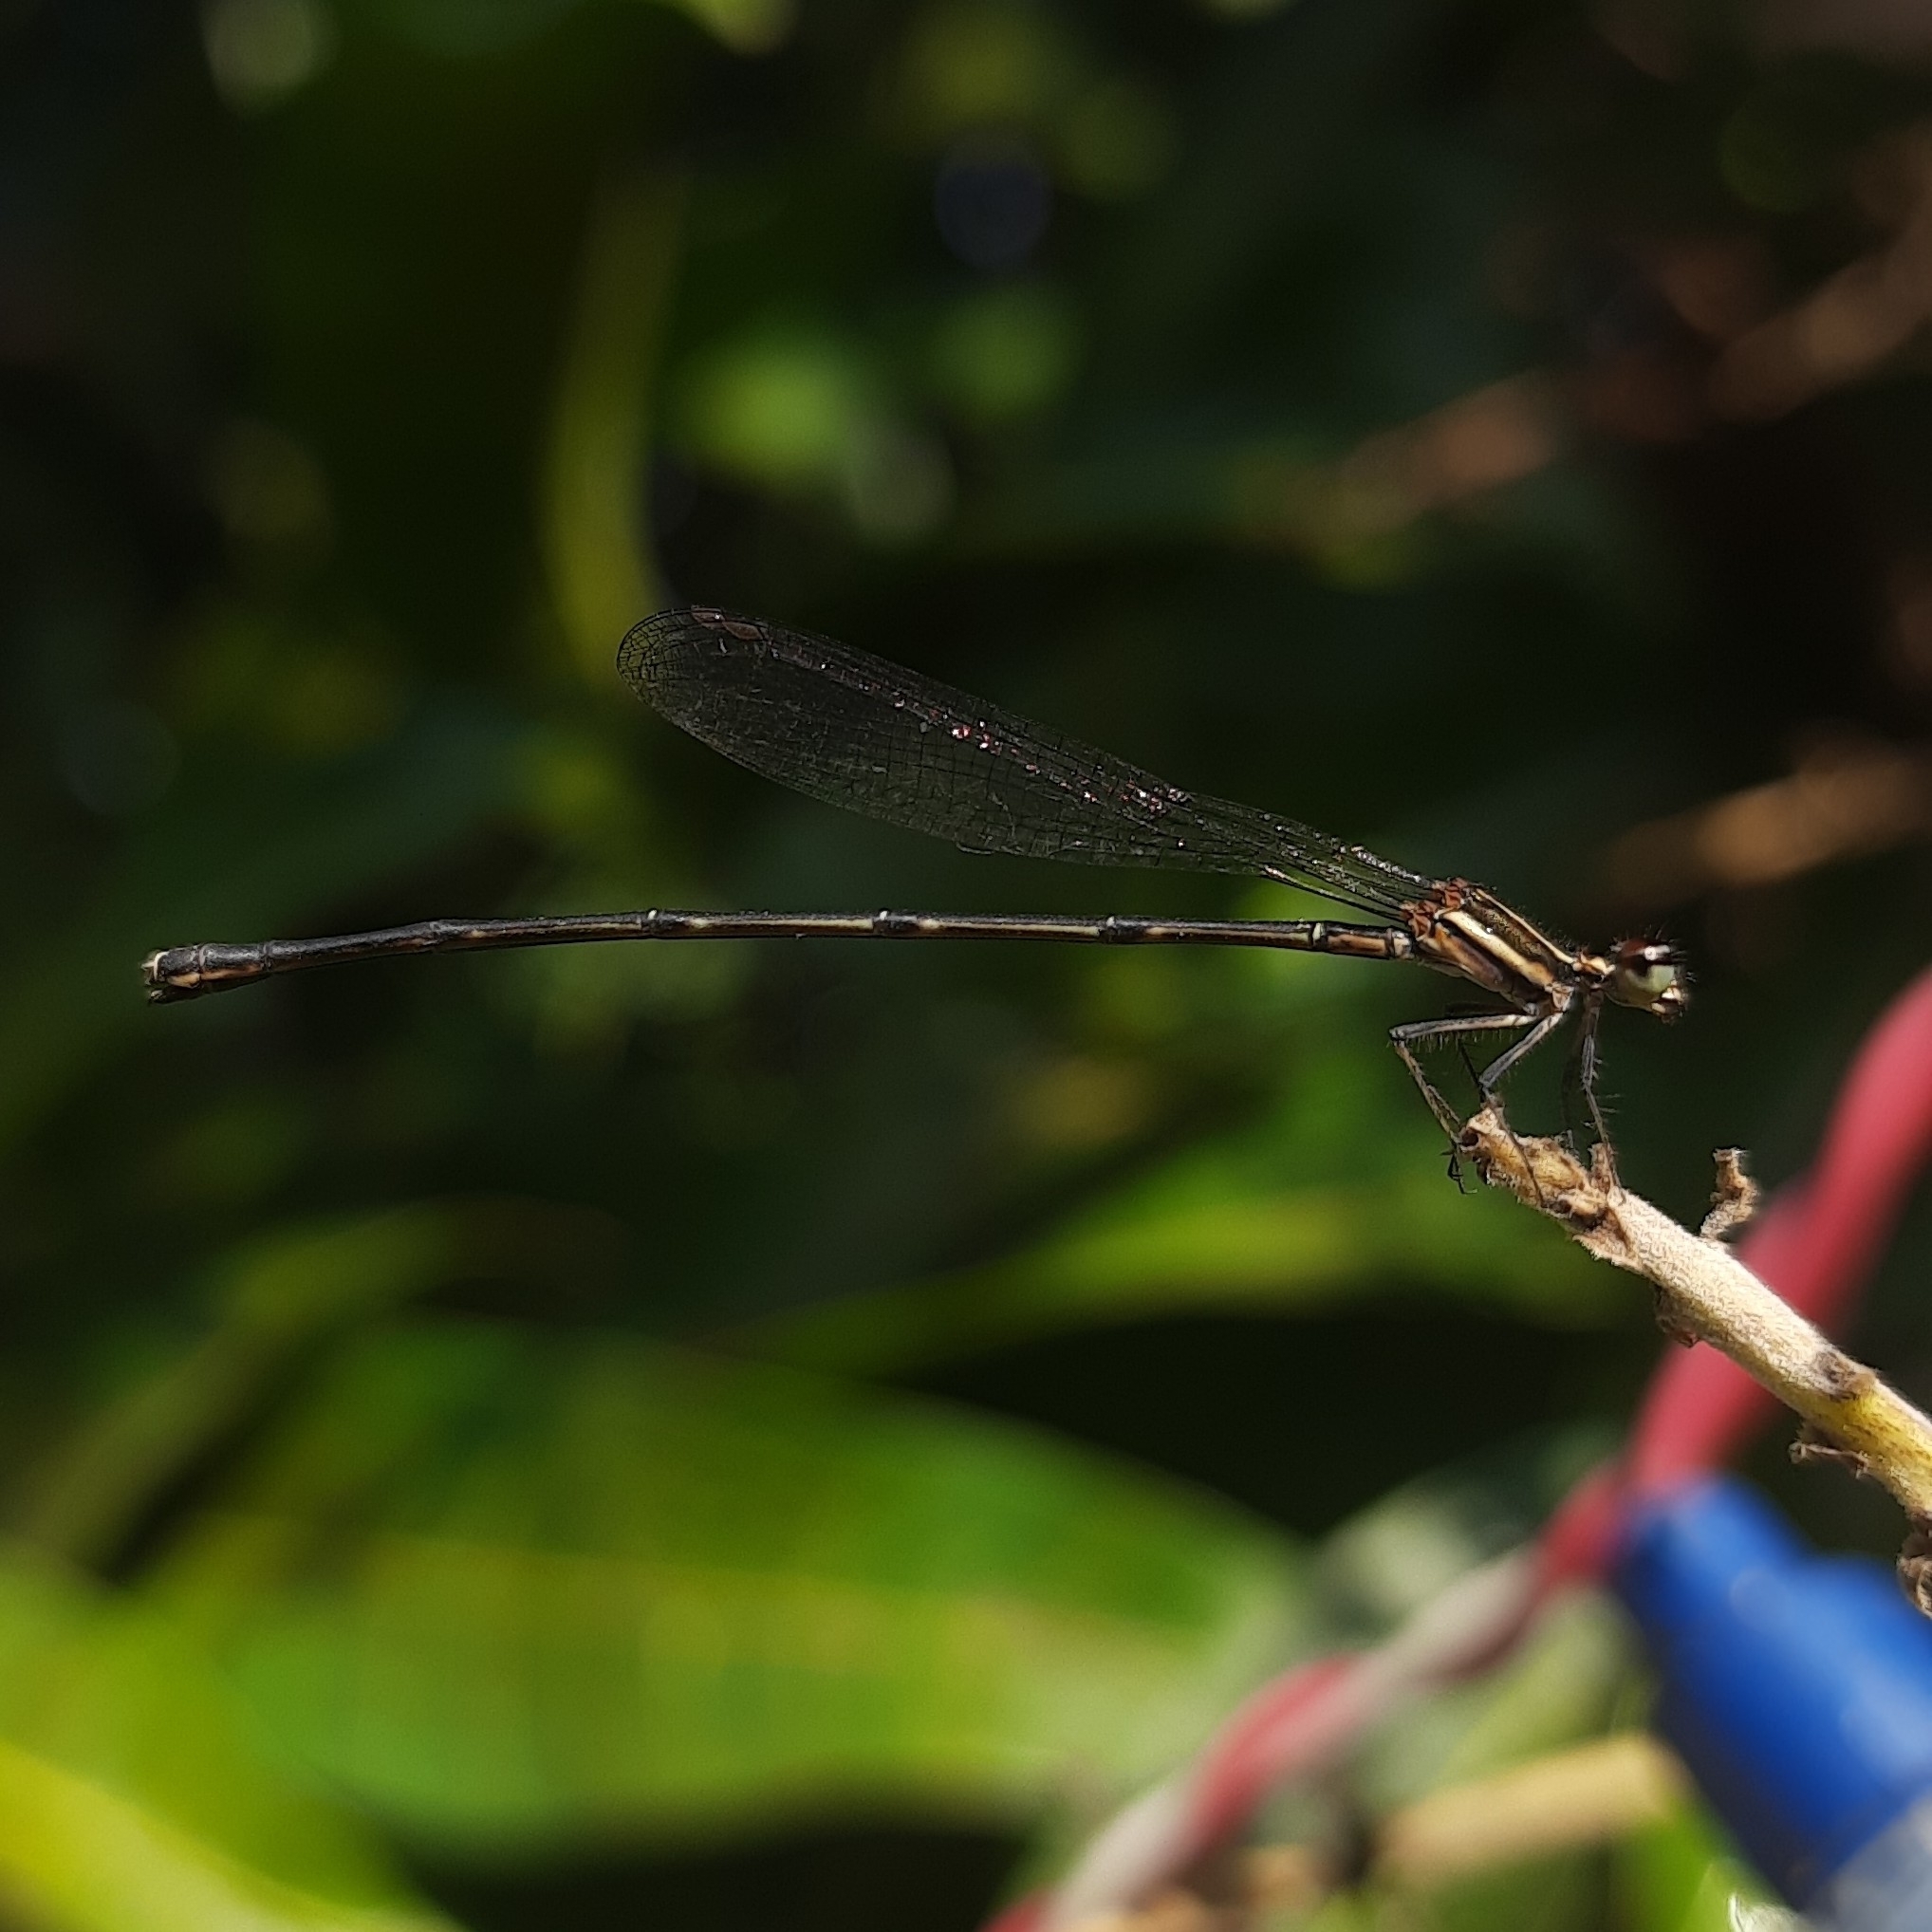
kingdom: Animalia
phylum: Arthropoda
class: Insecta
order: Odonata
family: Platycnemididae
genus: Prodasineura
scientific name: Prodasineura verticalis
